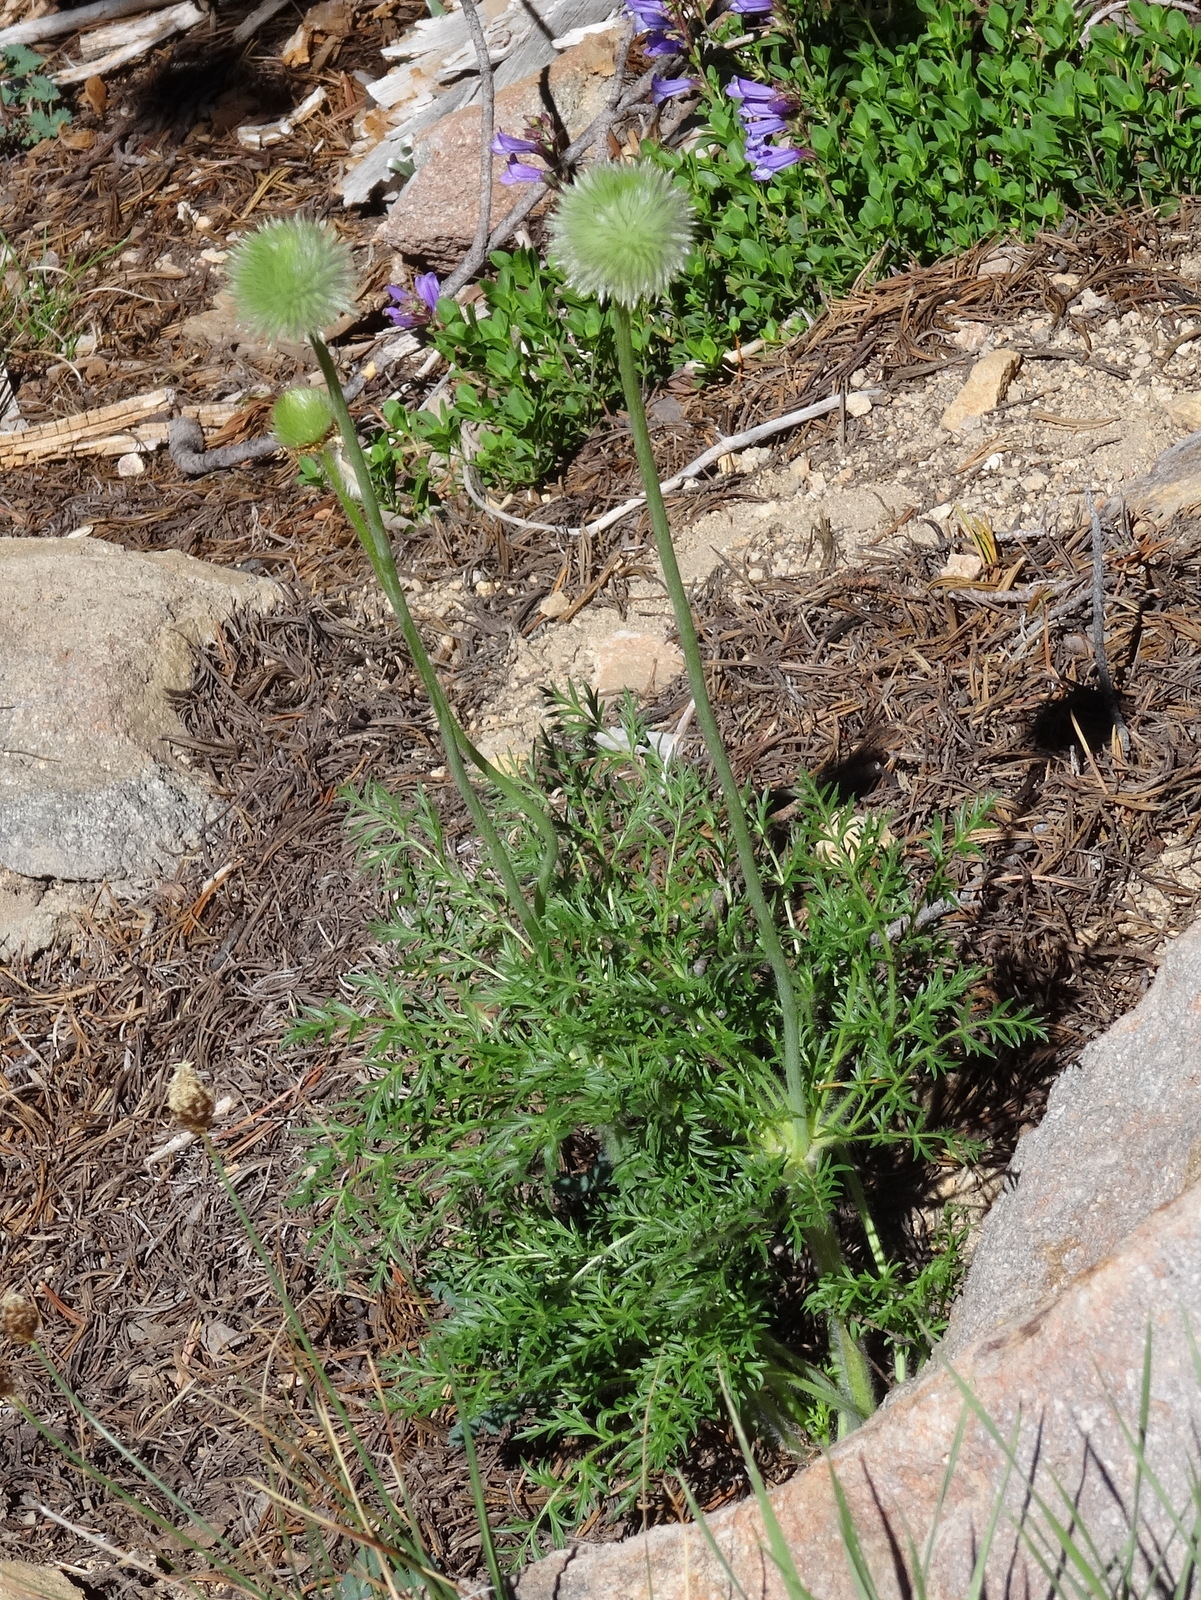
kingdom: Plantae
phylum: Tracheophyta
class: Magnoliopsida
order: Ranunculales
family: Ranunculaceae
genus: Pulsatilla
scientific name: Pulsatilla occidentalis
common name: Mountain pasqueflower
